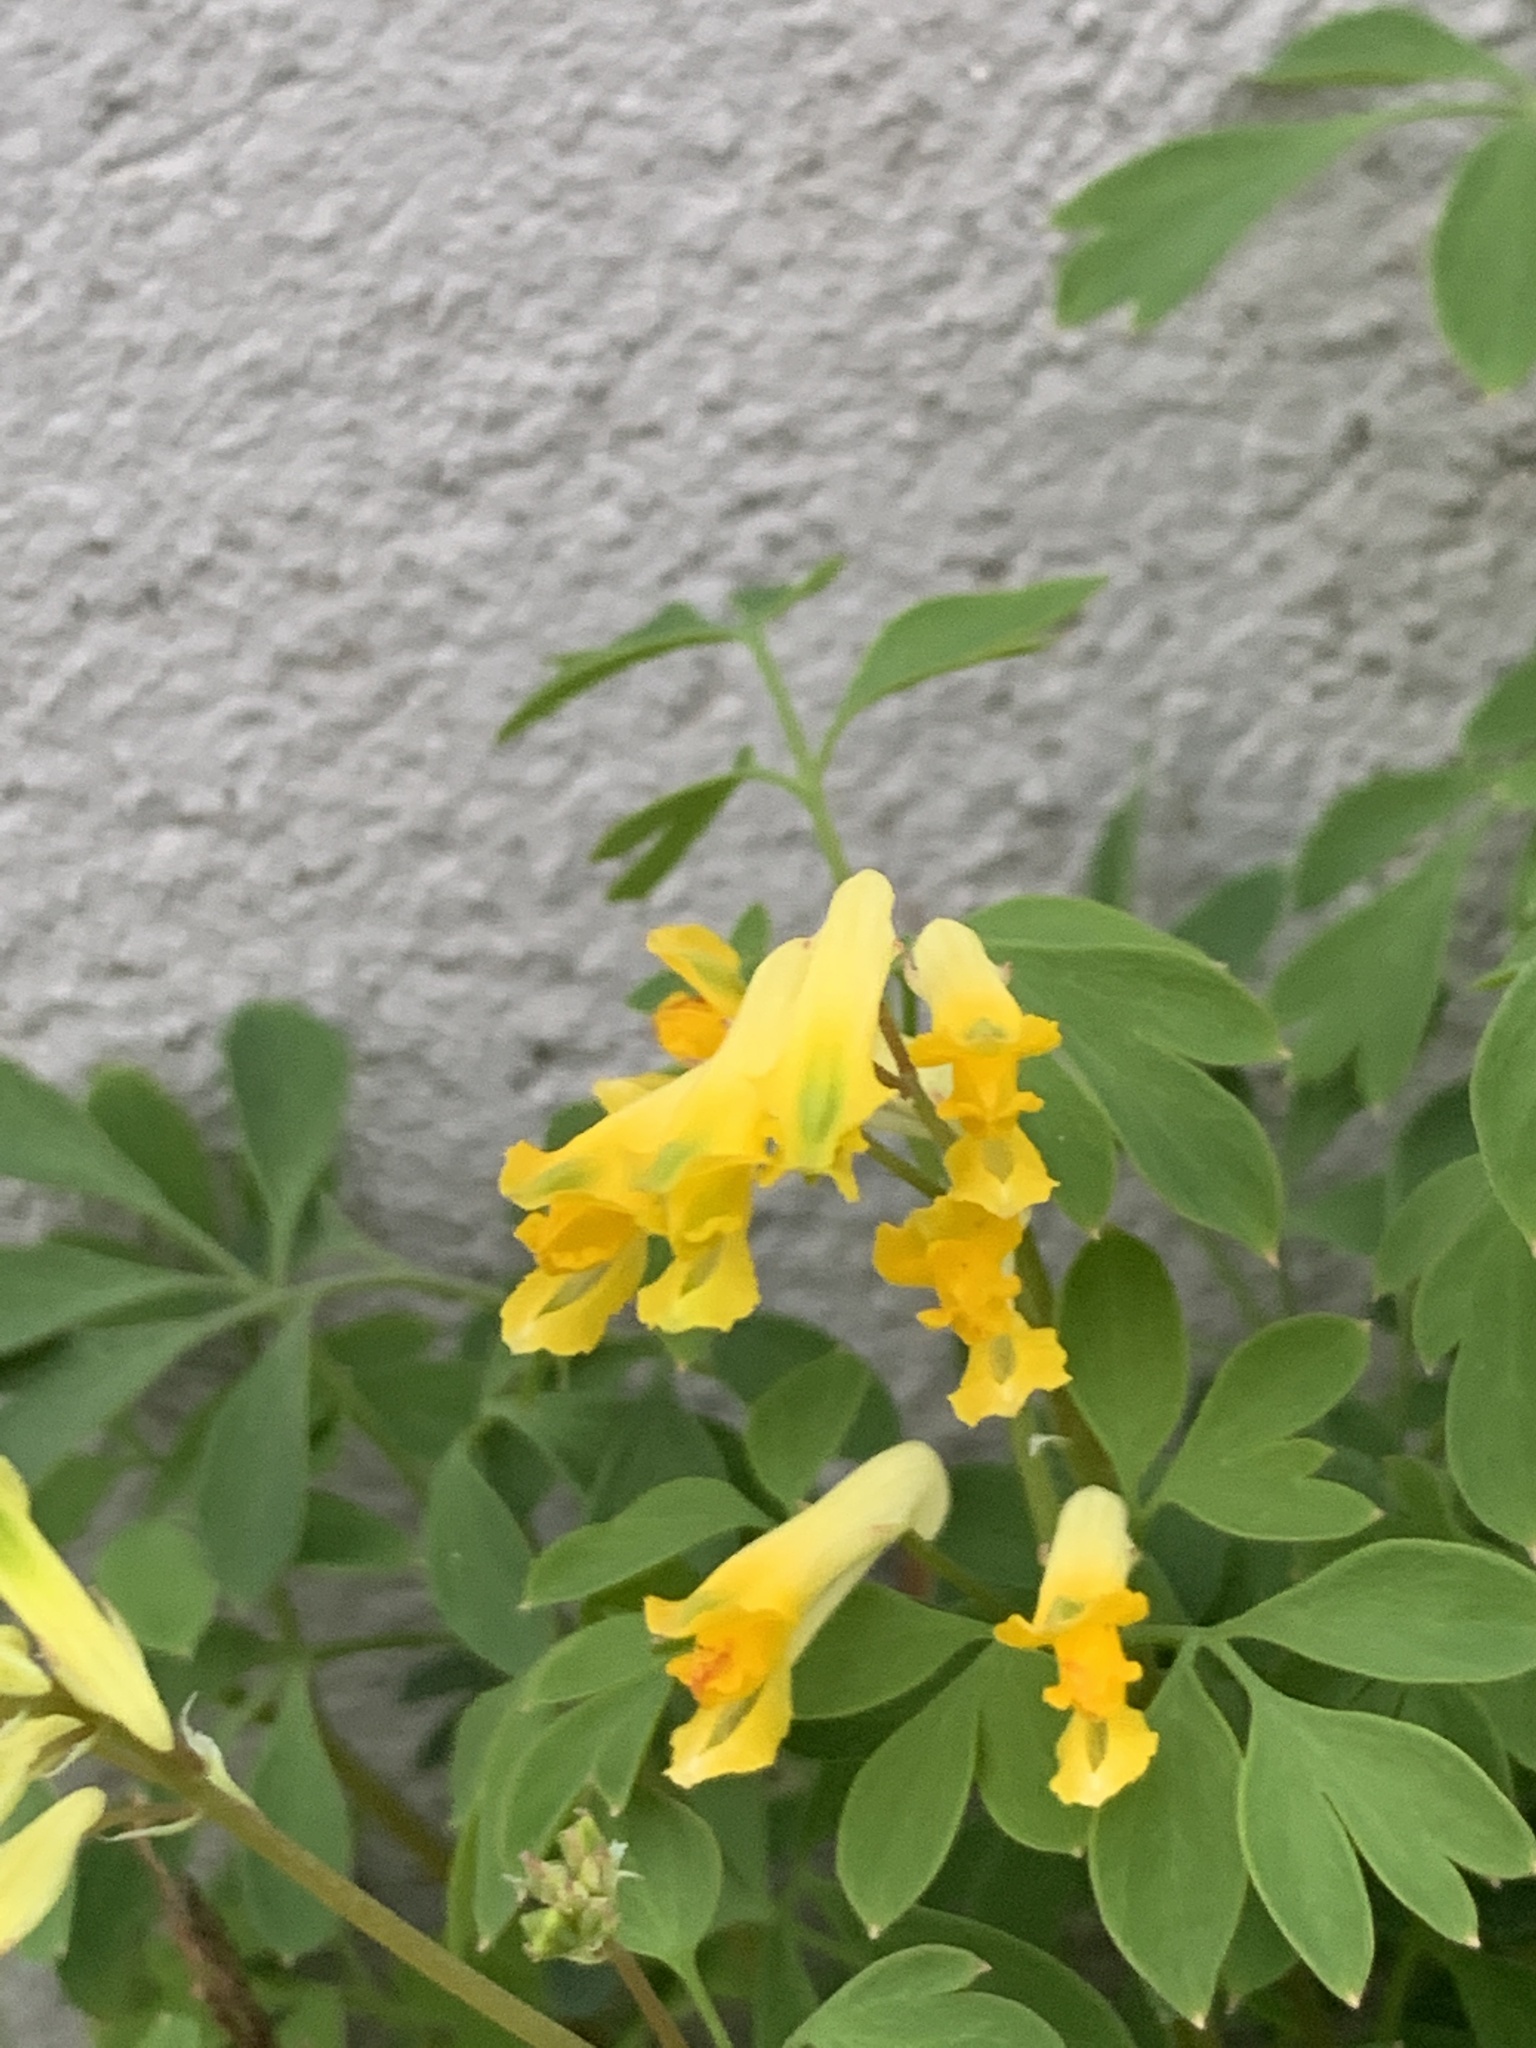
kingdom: Plantae
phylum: Tracheophyta
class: Magnoliopsida
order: Ranunculales
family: Papaveraceae
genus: Pseudofumaria
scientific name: Pseudofumaria lutea
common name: Yellow corydalis
